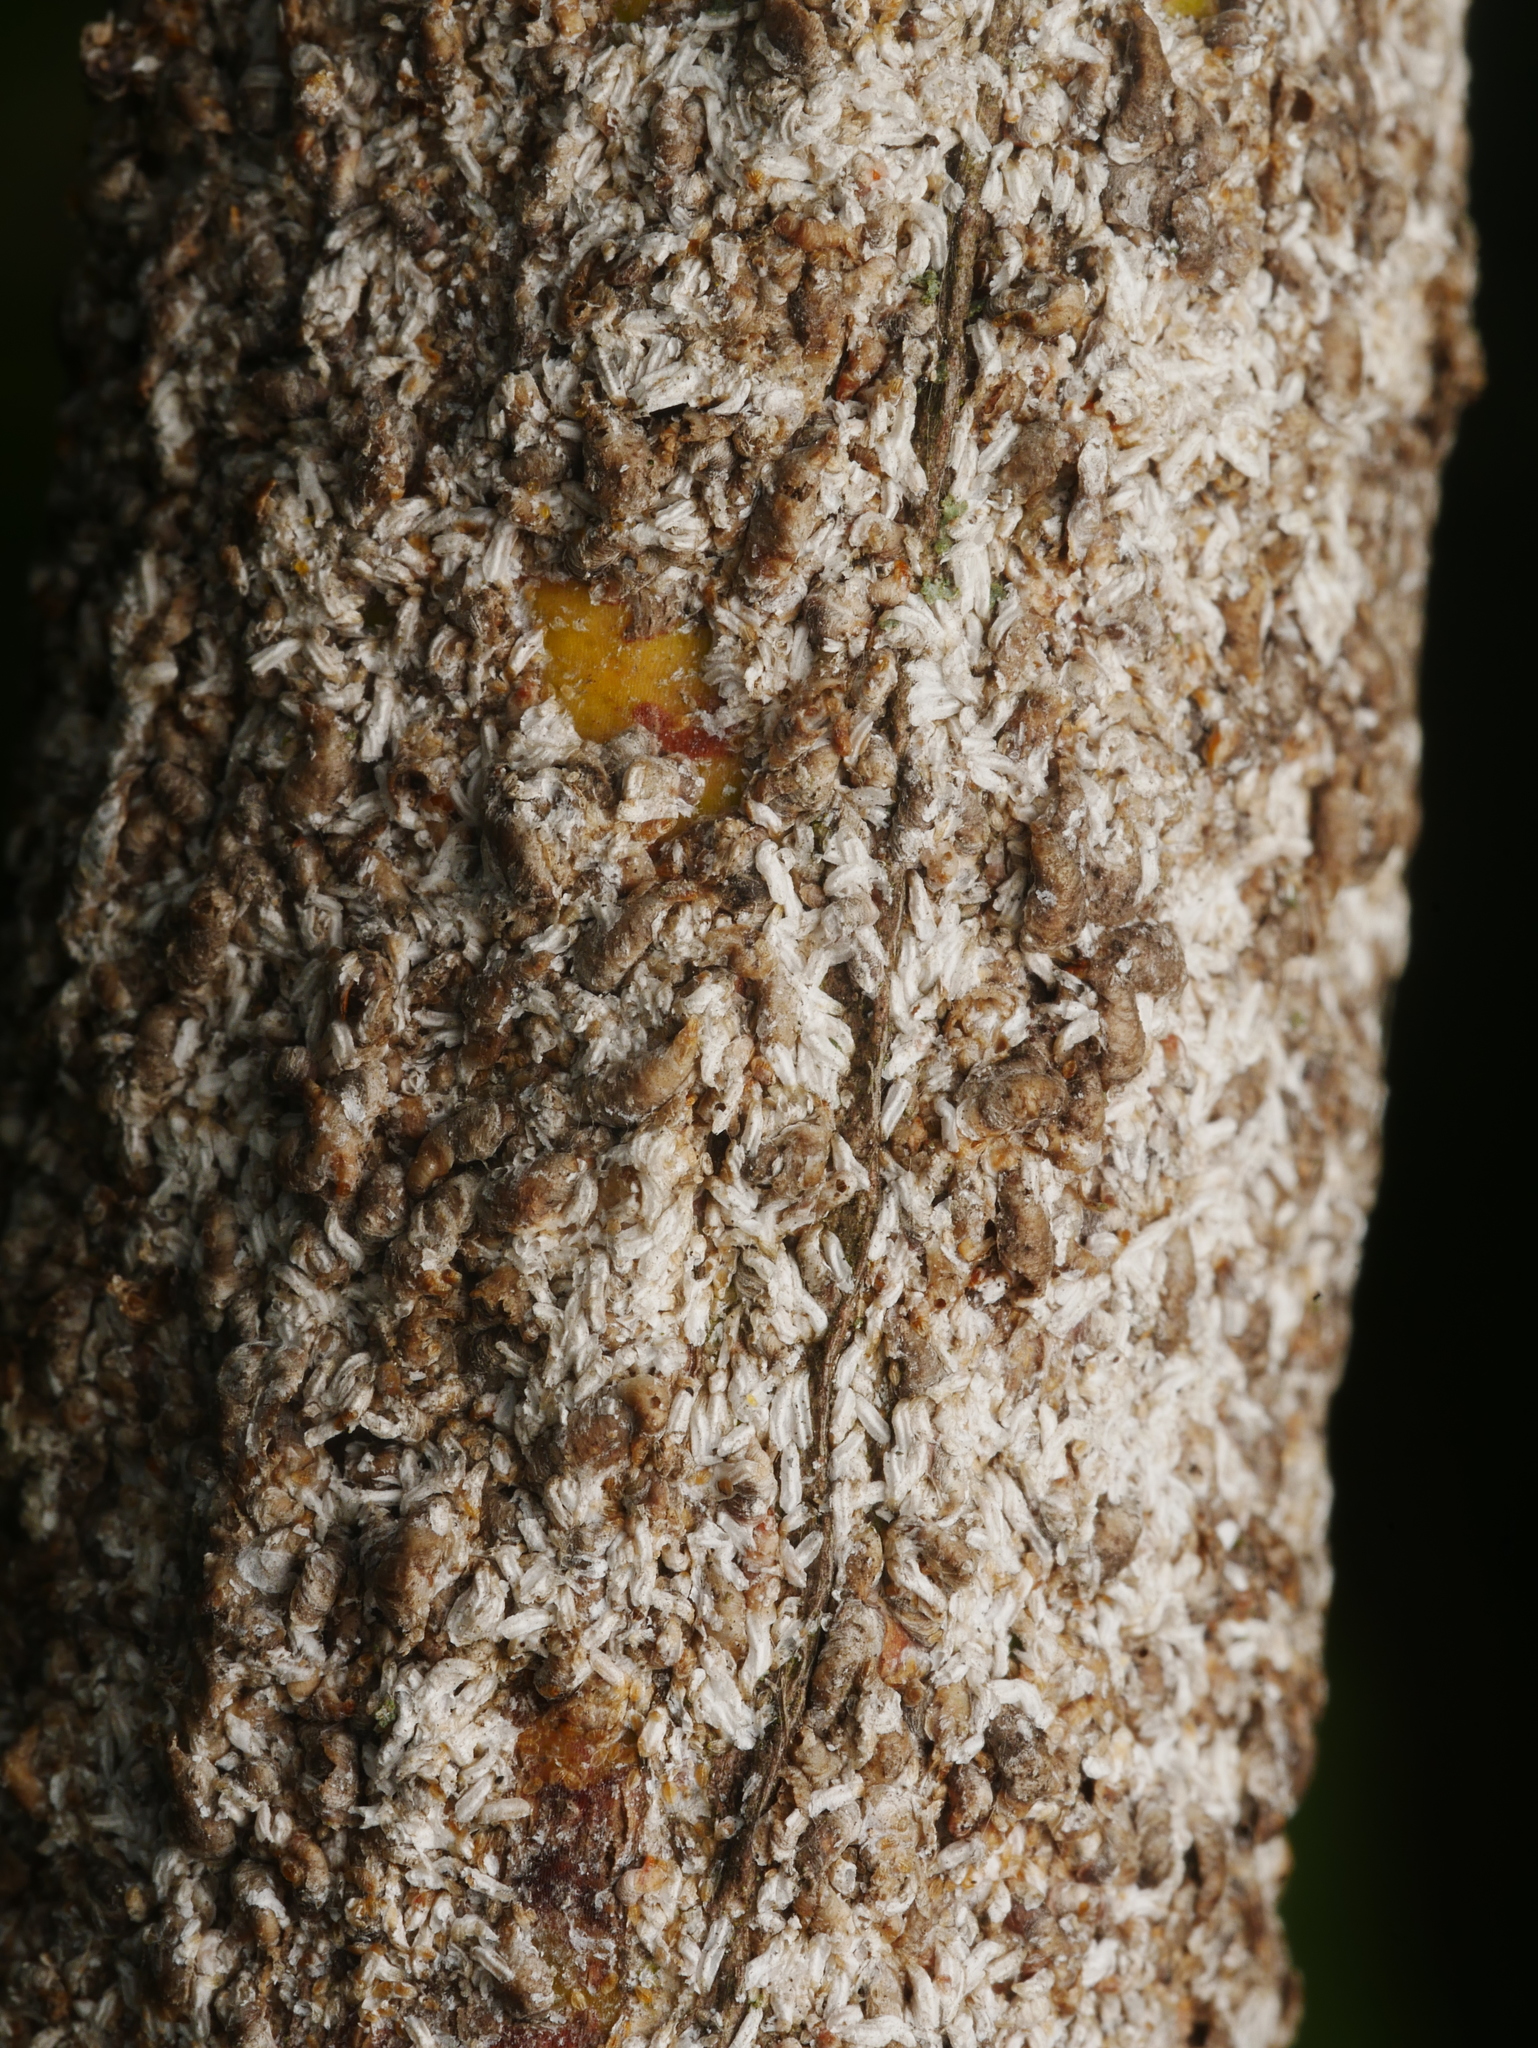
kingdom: Animalia
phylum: Arthropoda
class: Insecta
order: Hemiptera
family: Diaspididae
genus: Unaspis
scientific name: Unaspis euonymi
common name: Euonymus scale
